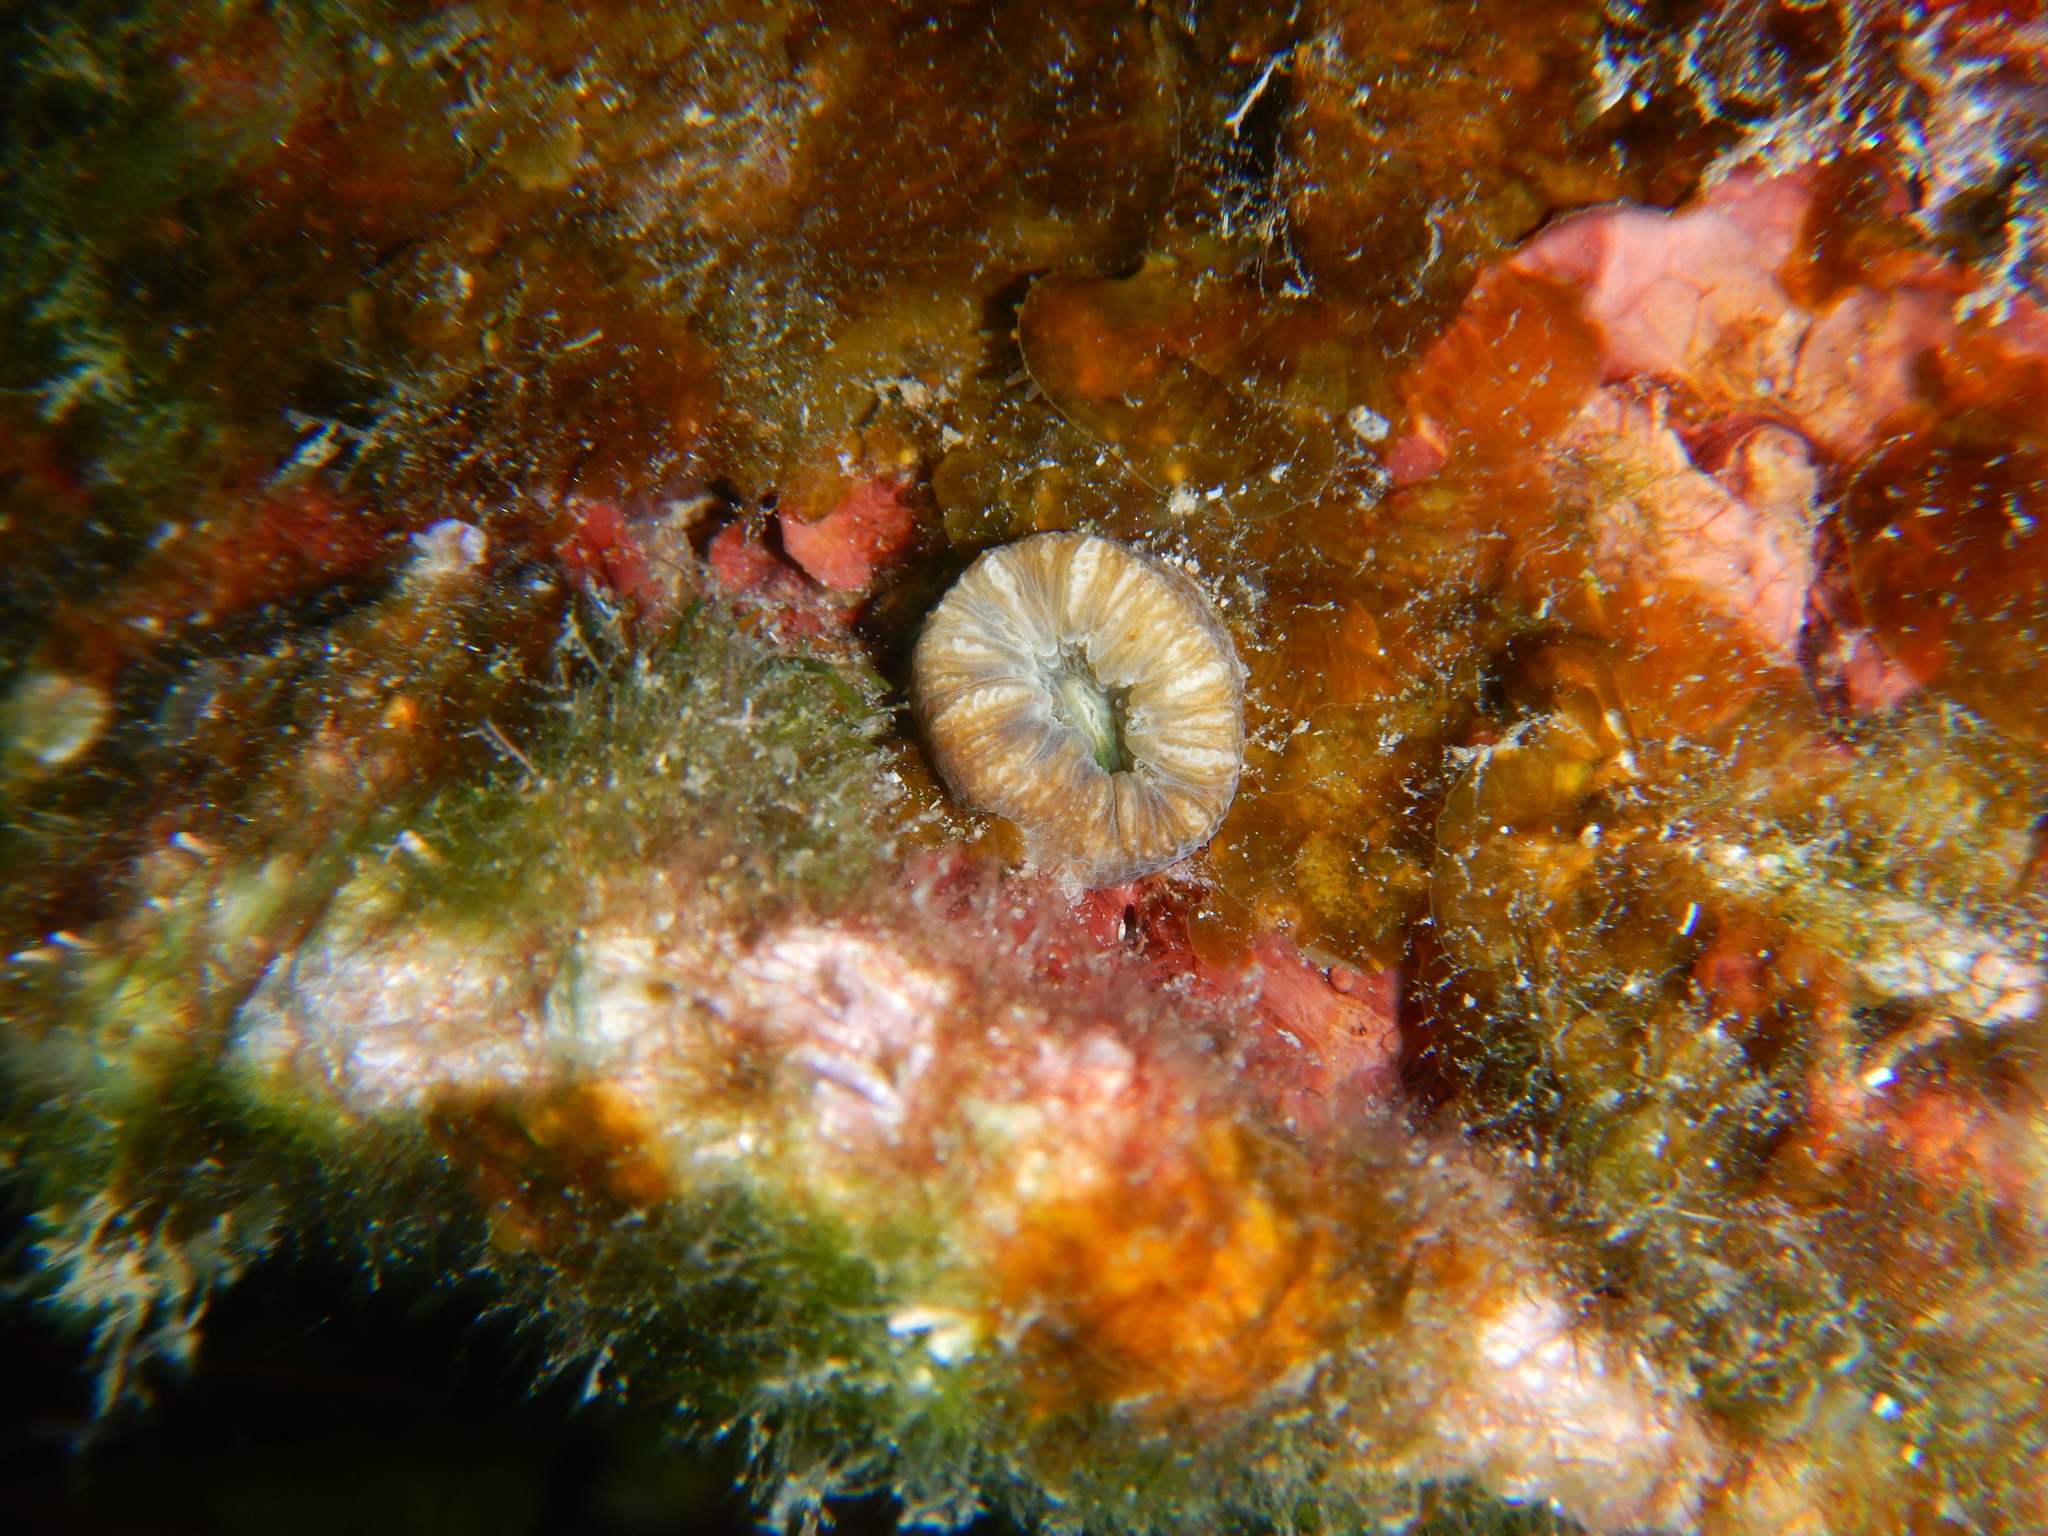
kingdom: Animalia
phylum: Cnidaria
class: Anthozoa
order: Scleractinia
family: Dendrophylliidae
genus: Balanophyllia
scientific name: Balanophyllia europaea
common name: Scarlet coral
